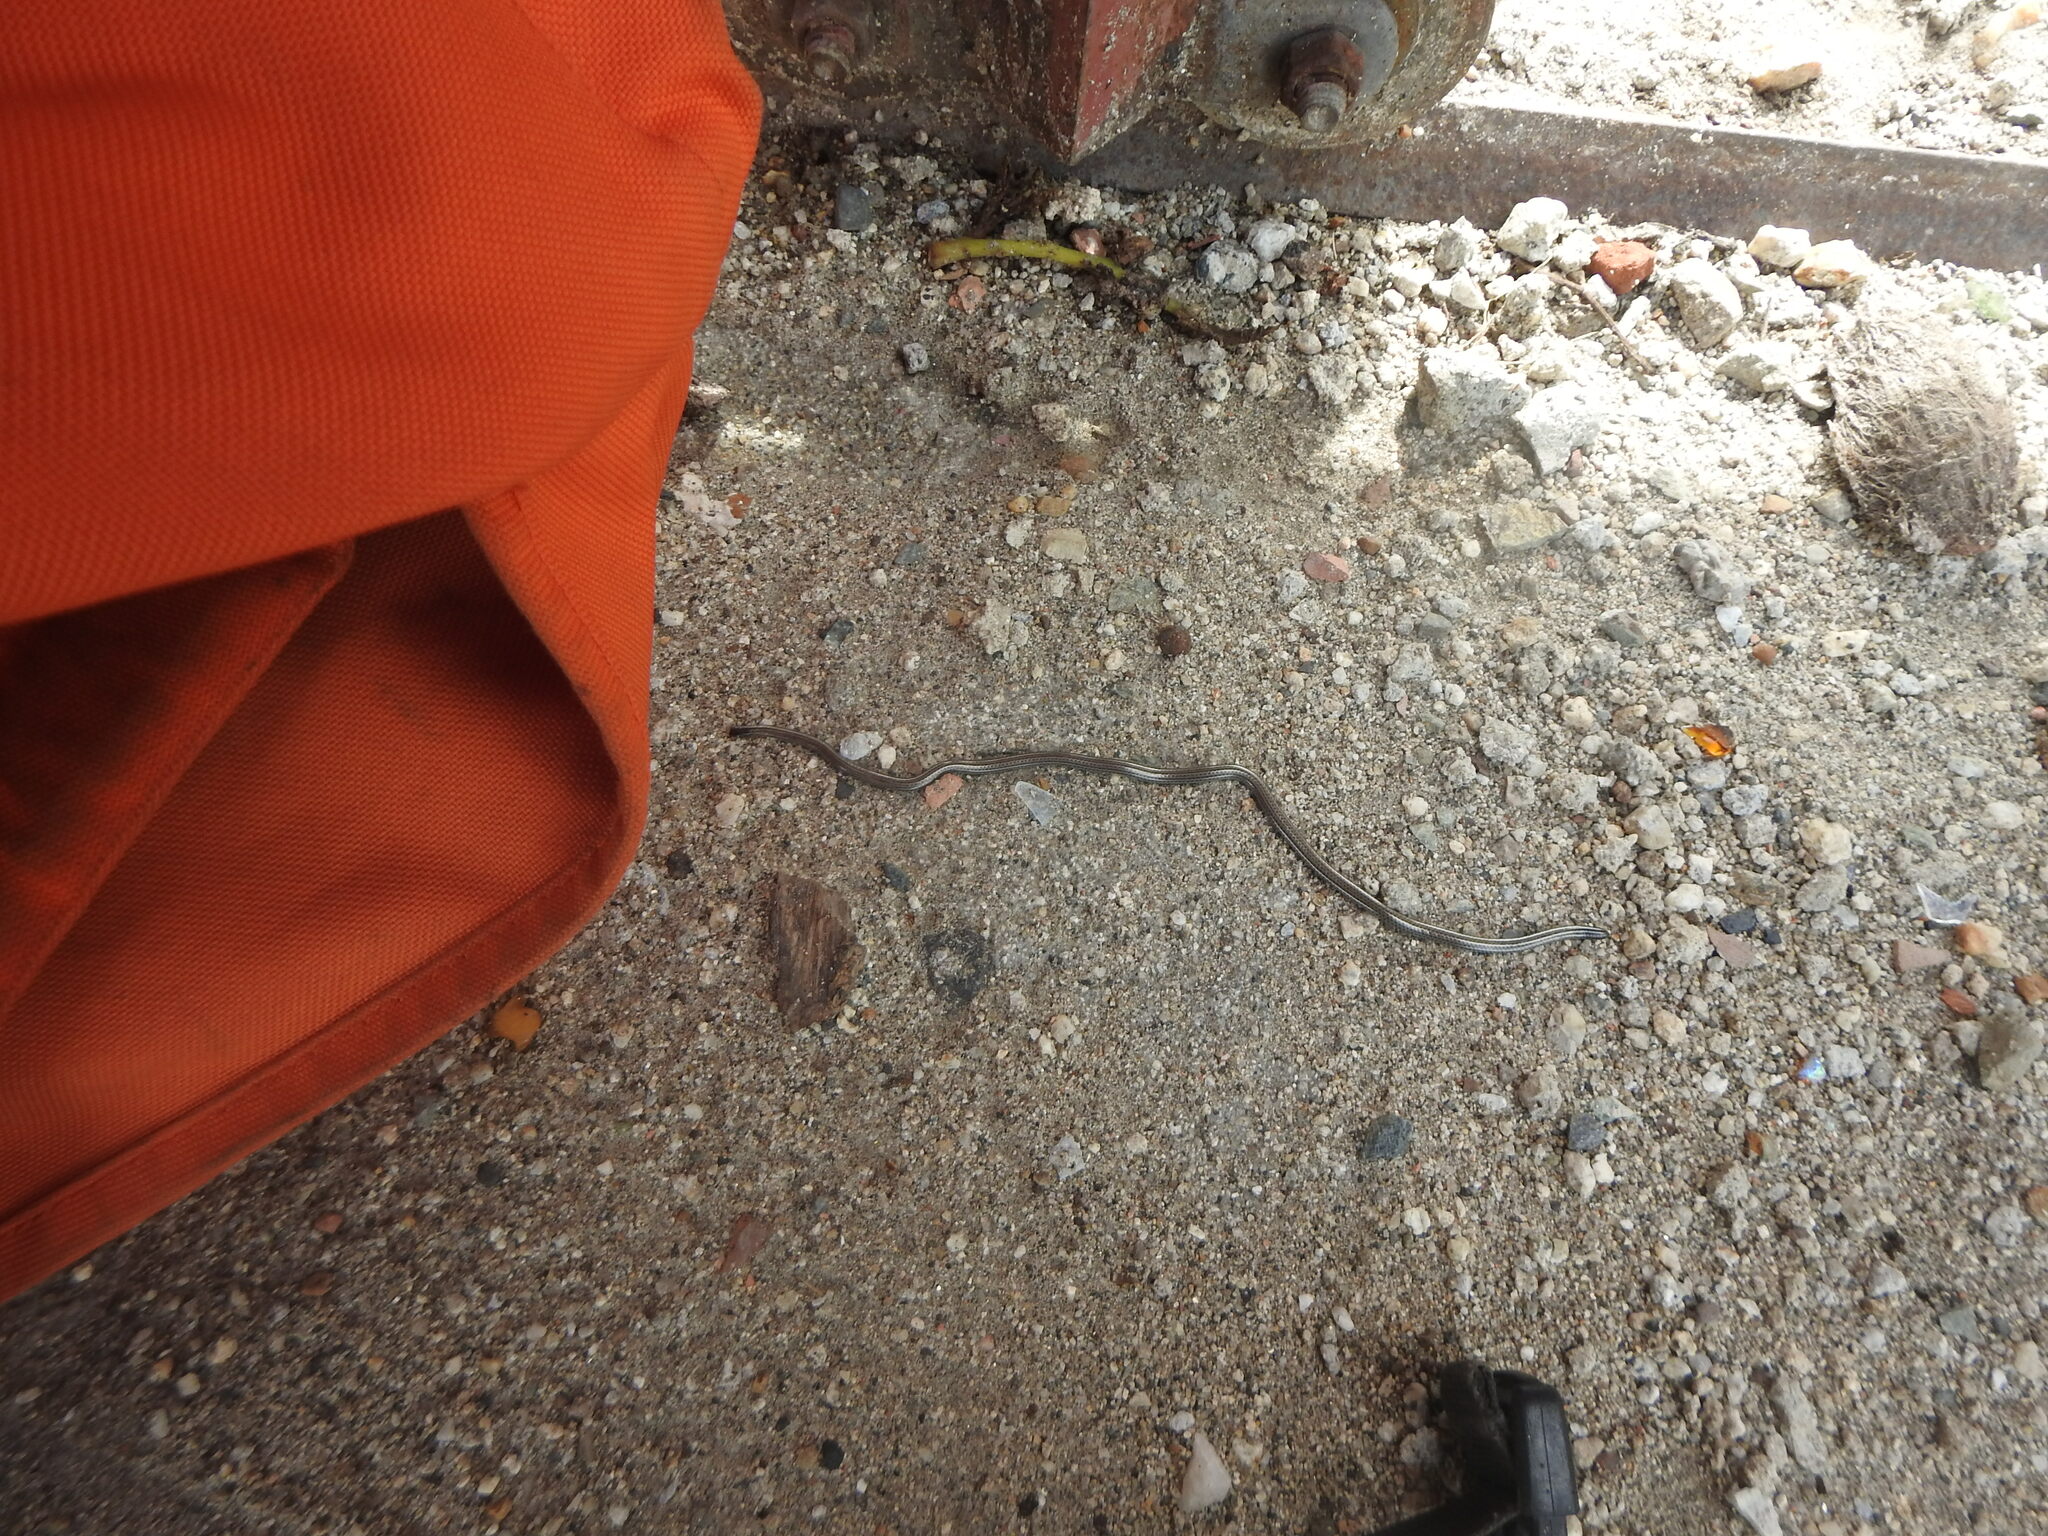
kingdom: Animalia
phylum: Chordata
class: Squamata
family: Leptotyphlopidae
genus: Epictia
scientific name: Epictia goudotii
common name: Black blind snake
